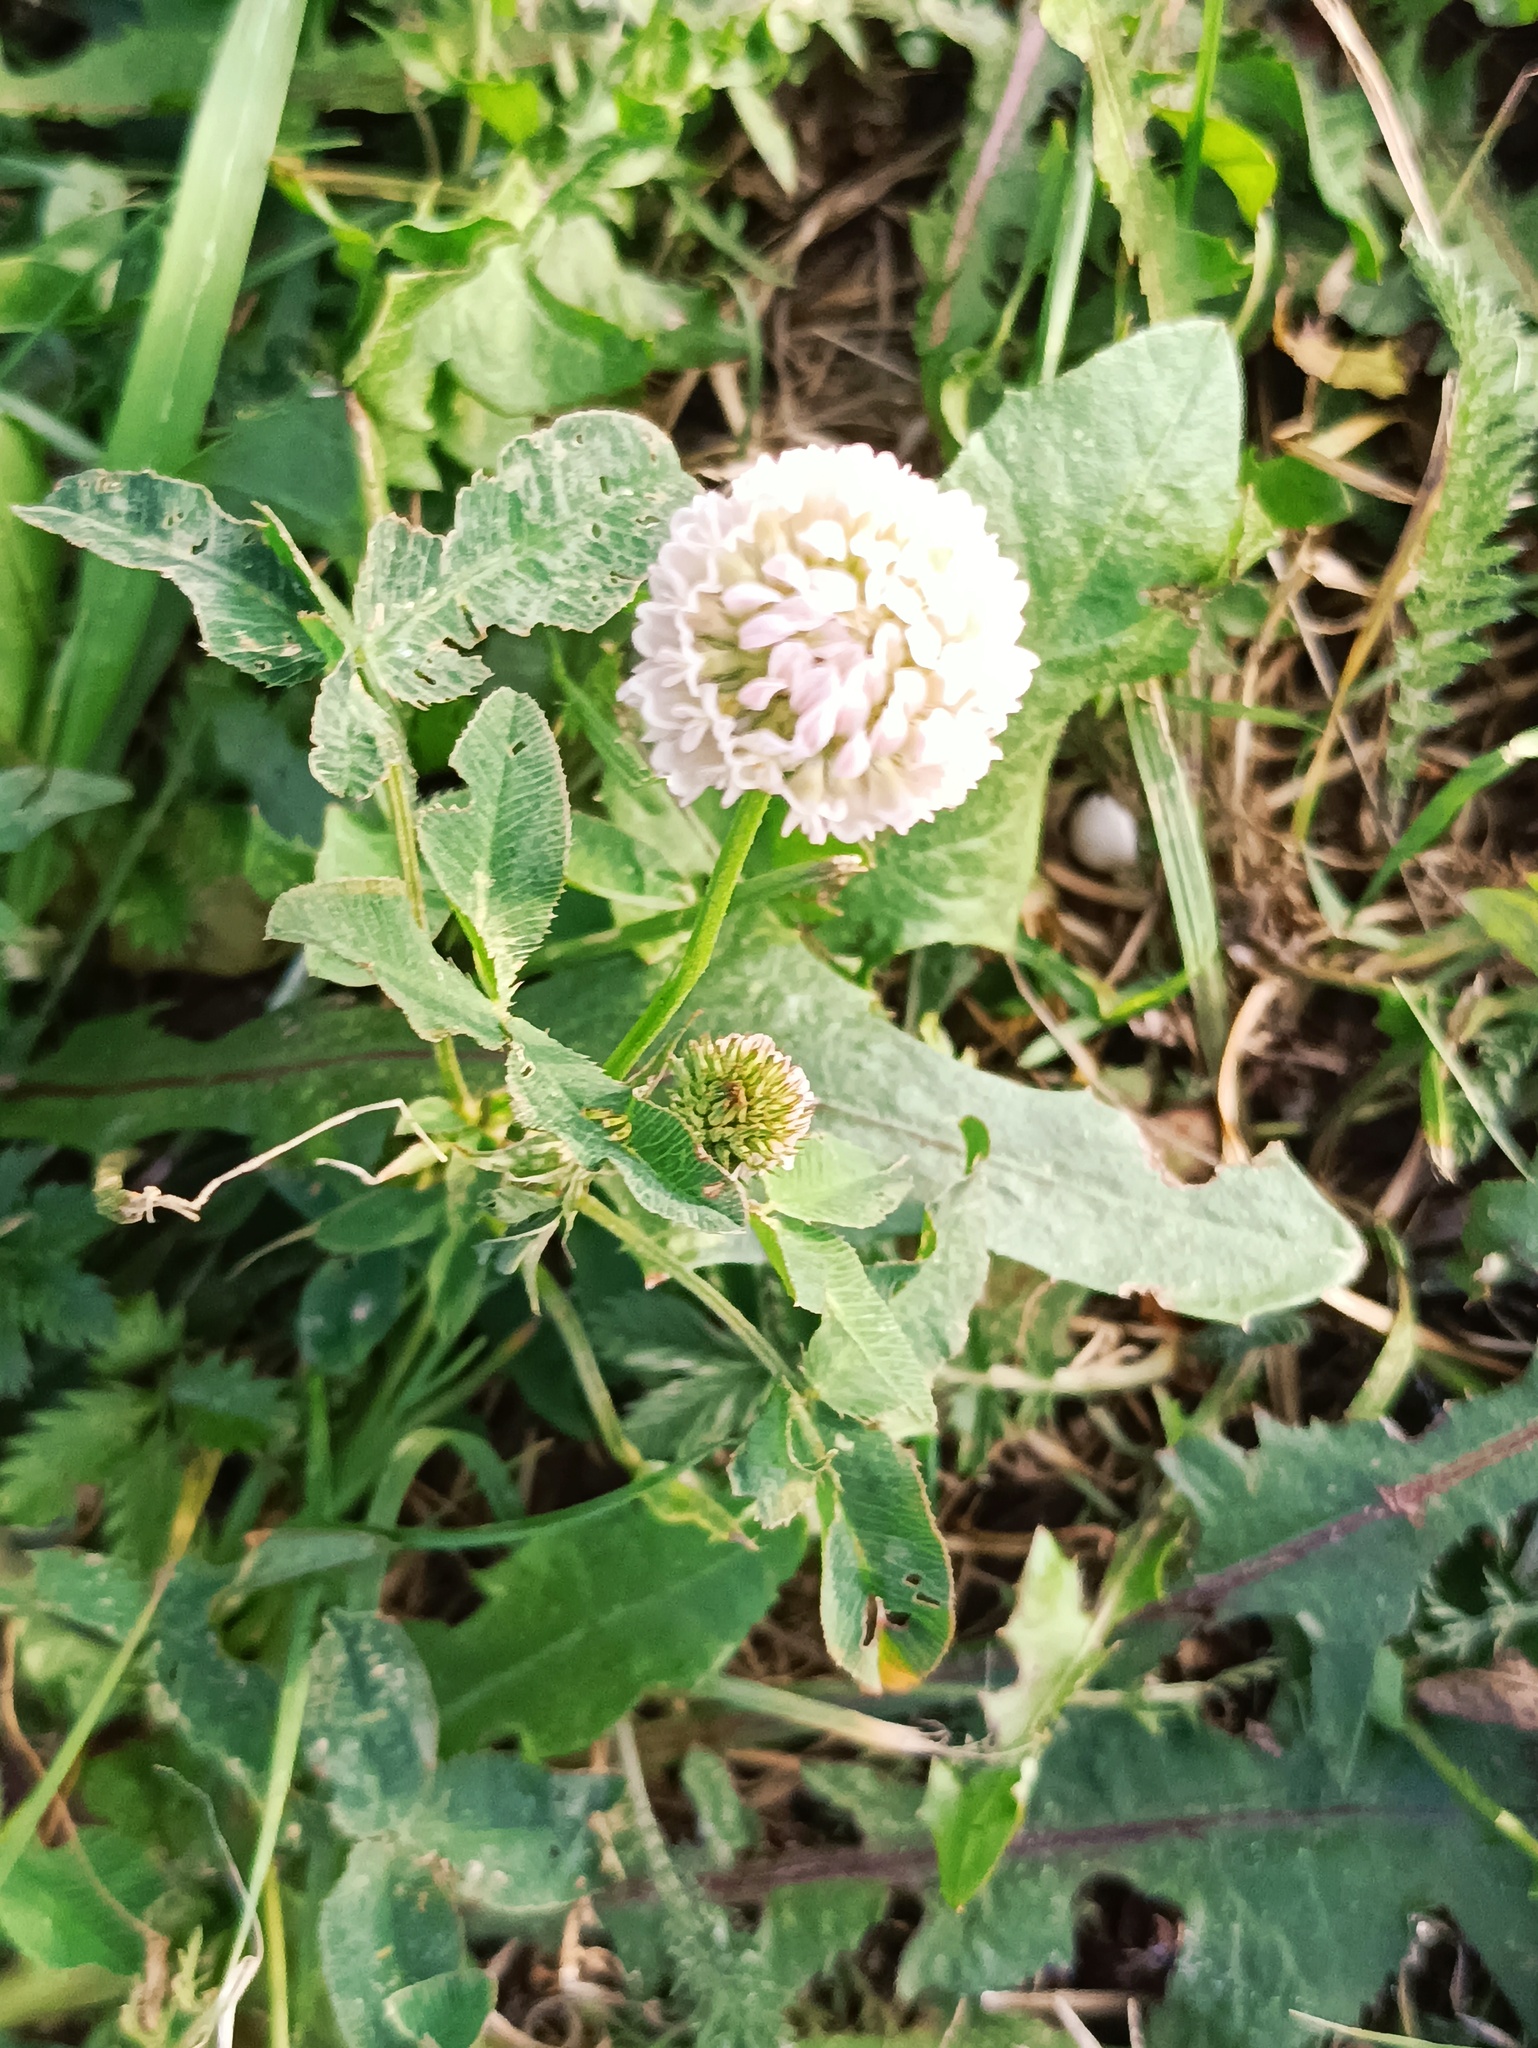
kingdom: Plantae
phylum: Tracheophyta
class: Magnoliopsida
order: Fabales
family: Fabaceae
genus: Trifolium
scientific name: Trifolium hybridum
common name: Alsike clover
